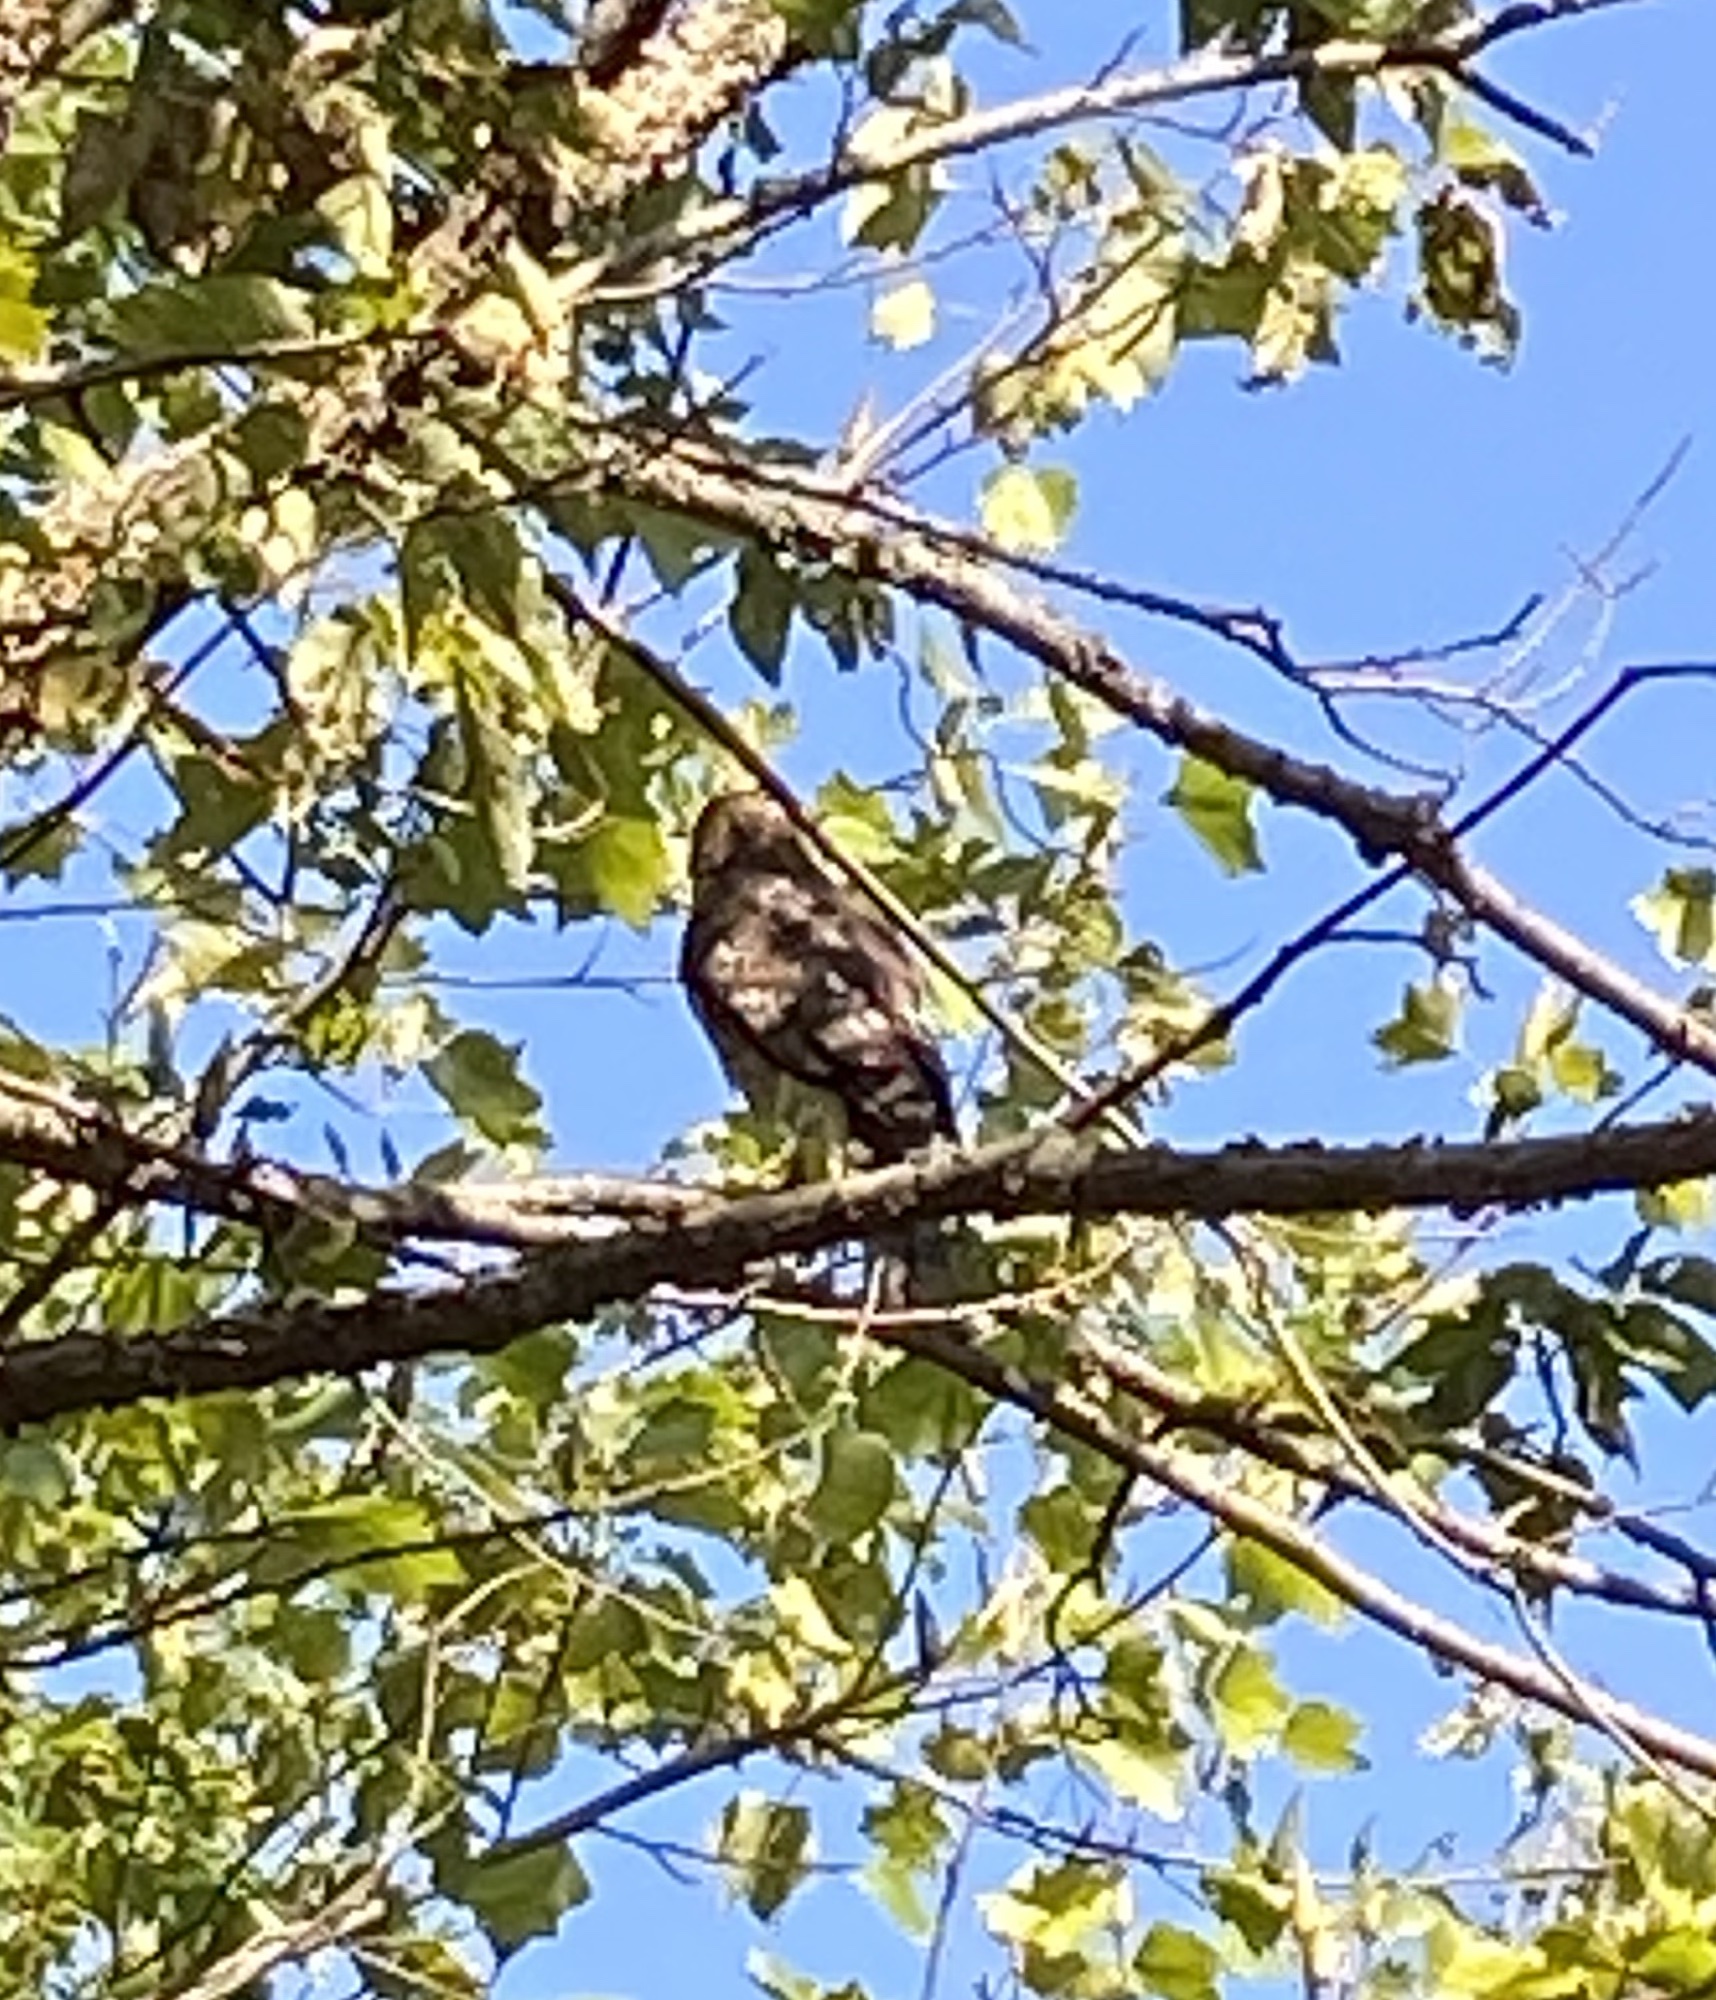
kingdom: Animalia
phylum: Chordata
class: Aves
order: Accipitriformes
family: Accipitridae
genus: Buteo
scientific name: Buteo lineatus
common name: Red-shouldered hawk
